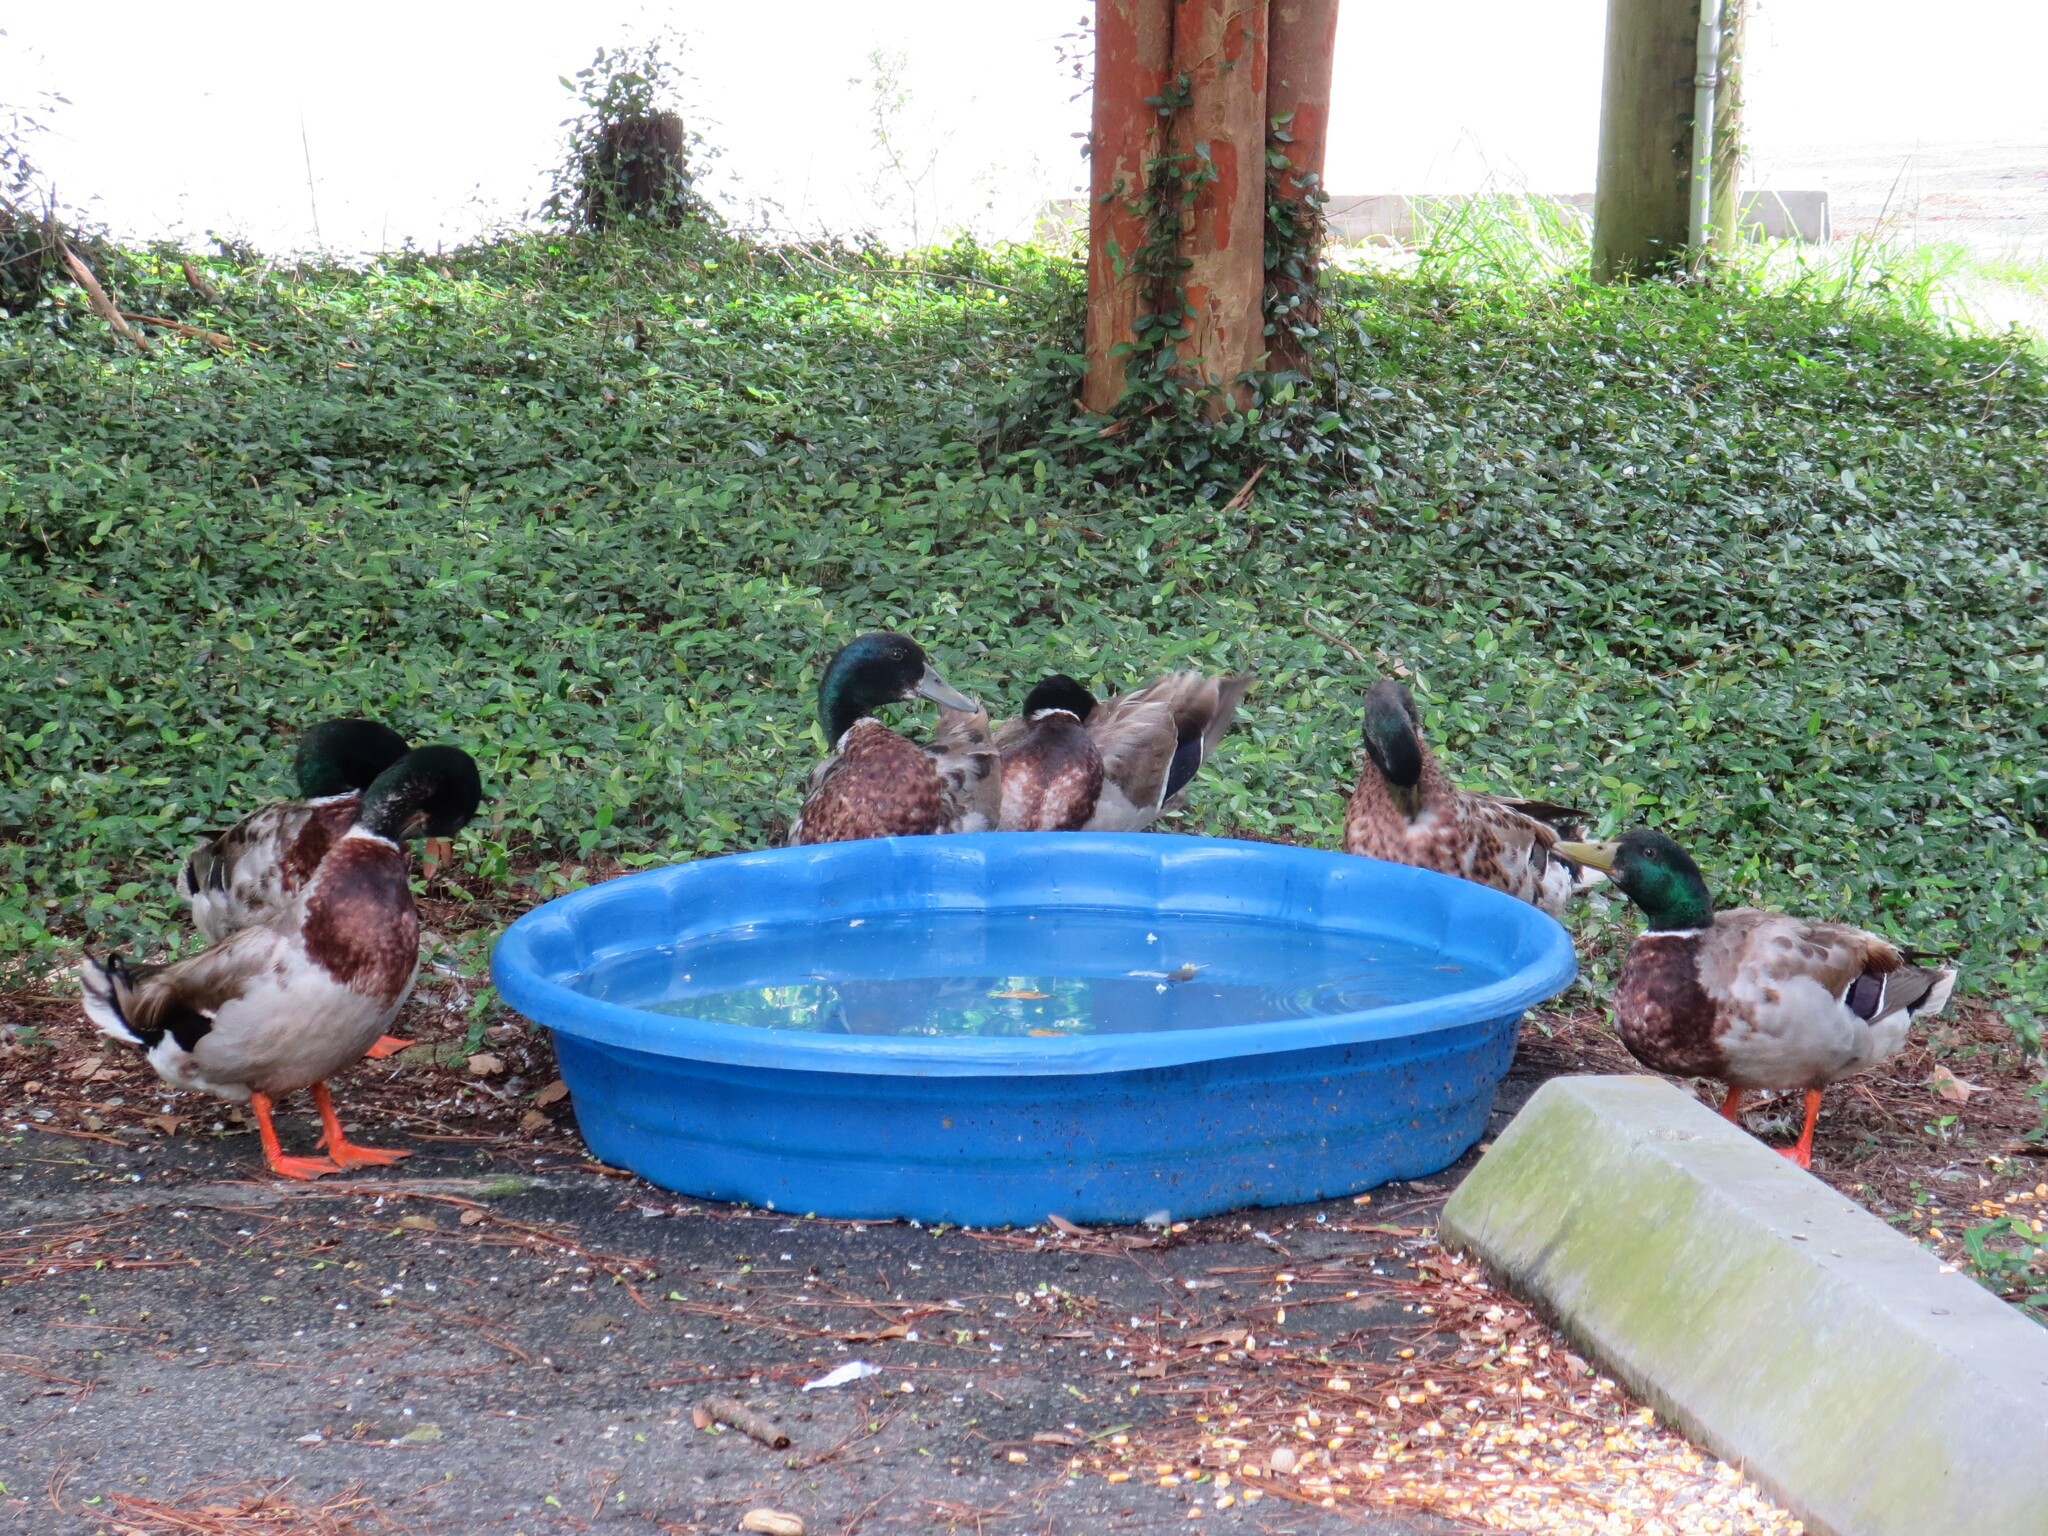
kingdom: Animalia
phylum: Chordata
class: Aves
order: Anseriformes
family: Anatidae
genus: Anas
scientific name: Anas platyrhynchos
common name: Mallard
